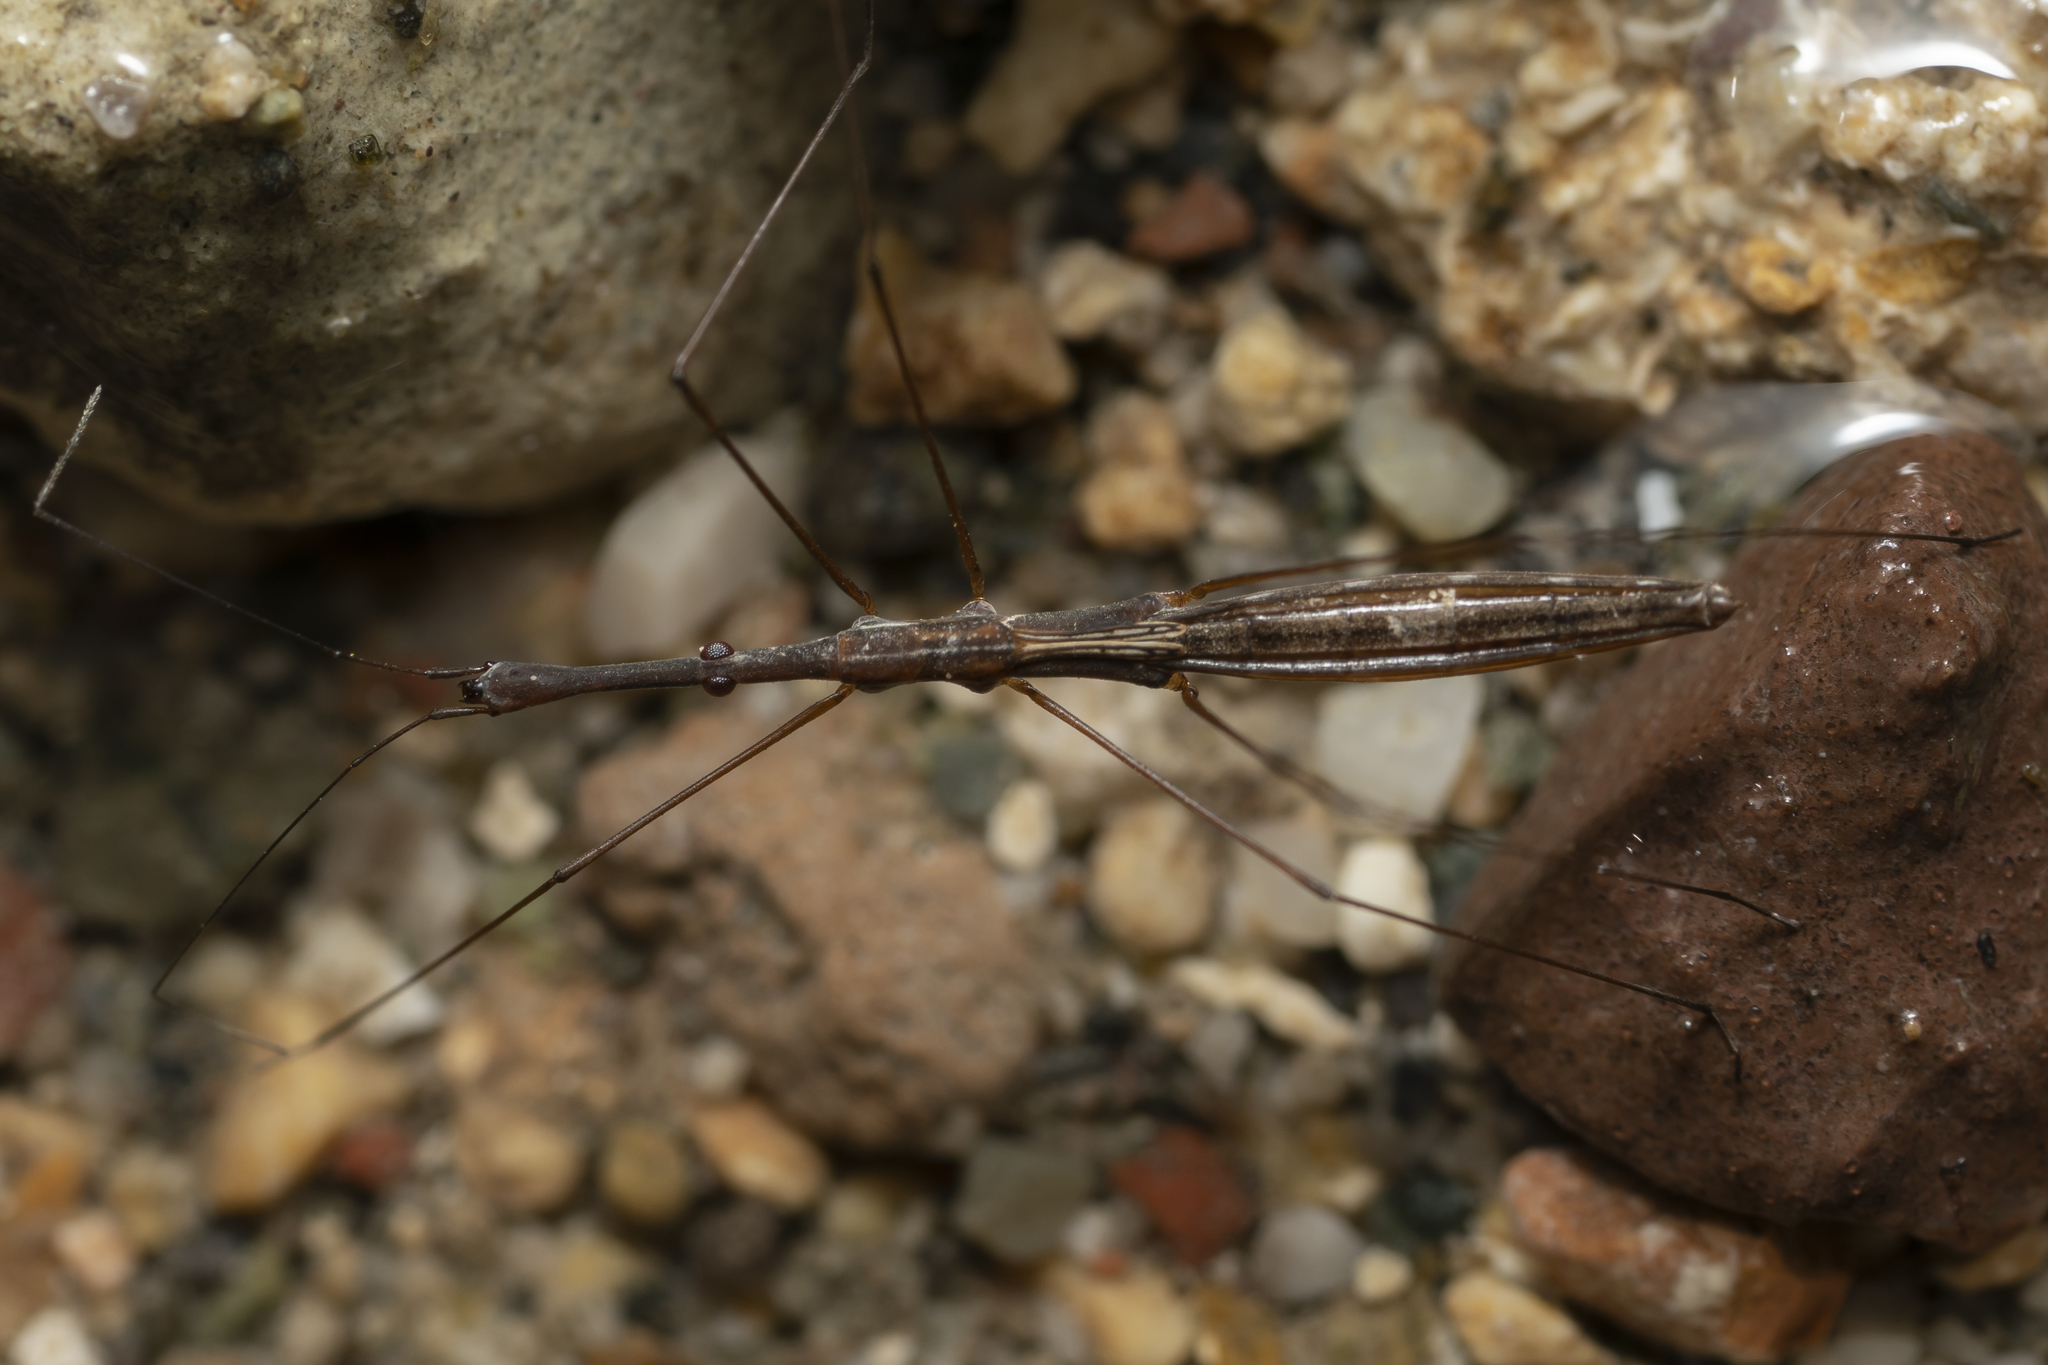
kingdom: Animalia
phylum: Arthropoda
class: Insecta
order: Hemiptera
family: Hydrometridae
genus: Hydrometra
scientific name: Hydrometra stagnorum
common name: Water measurer
